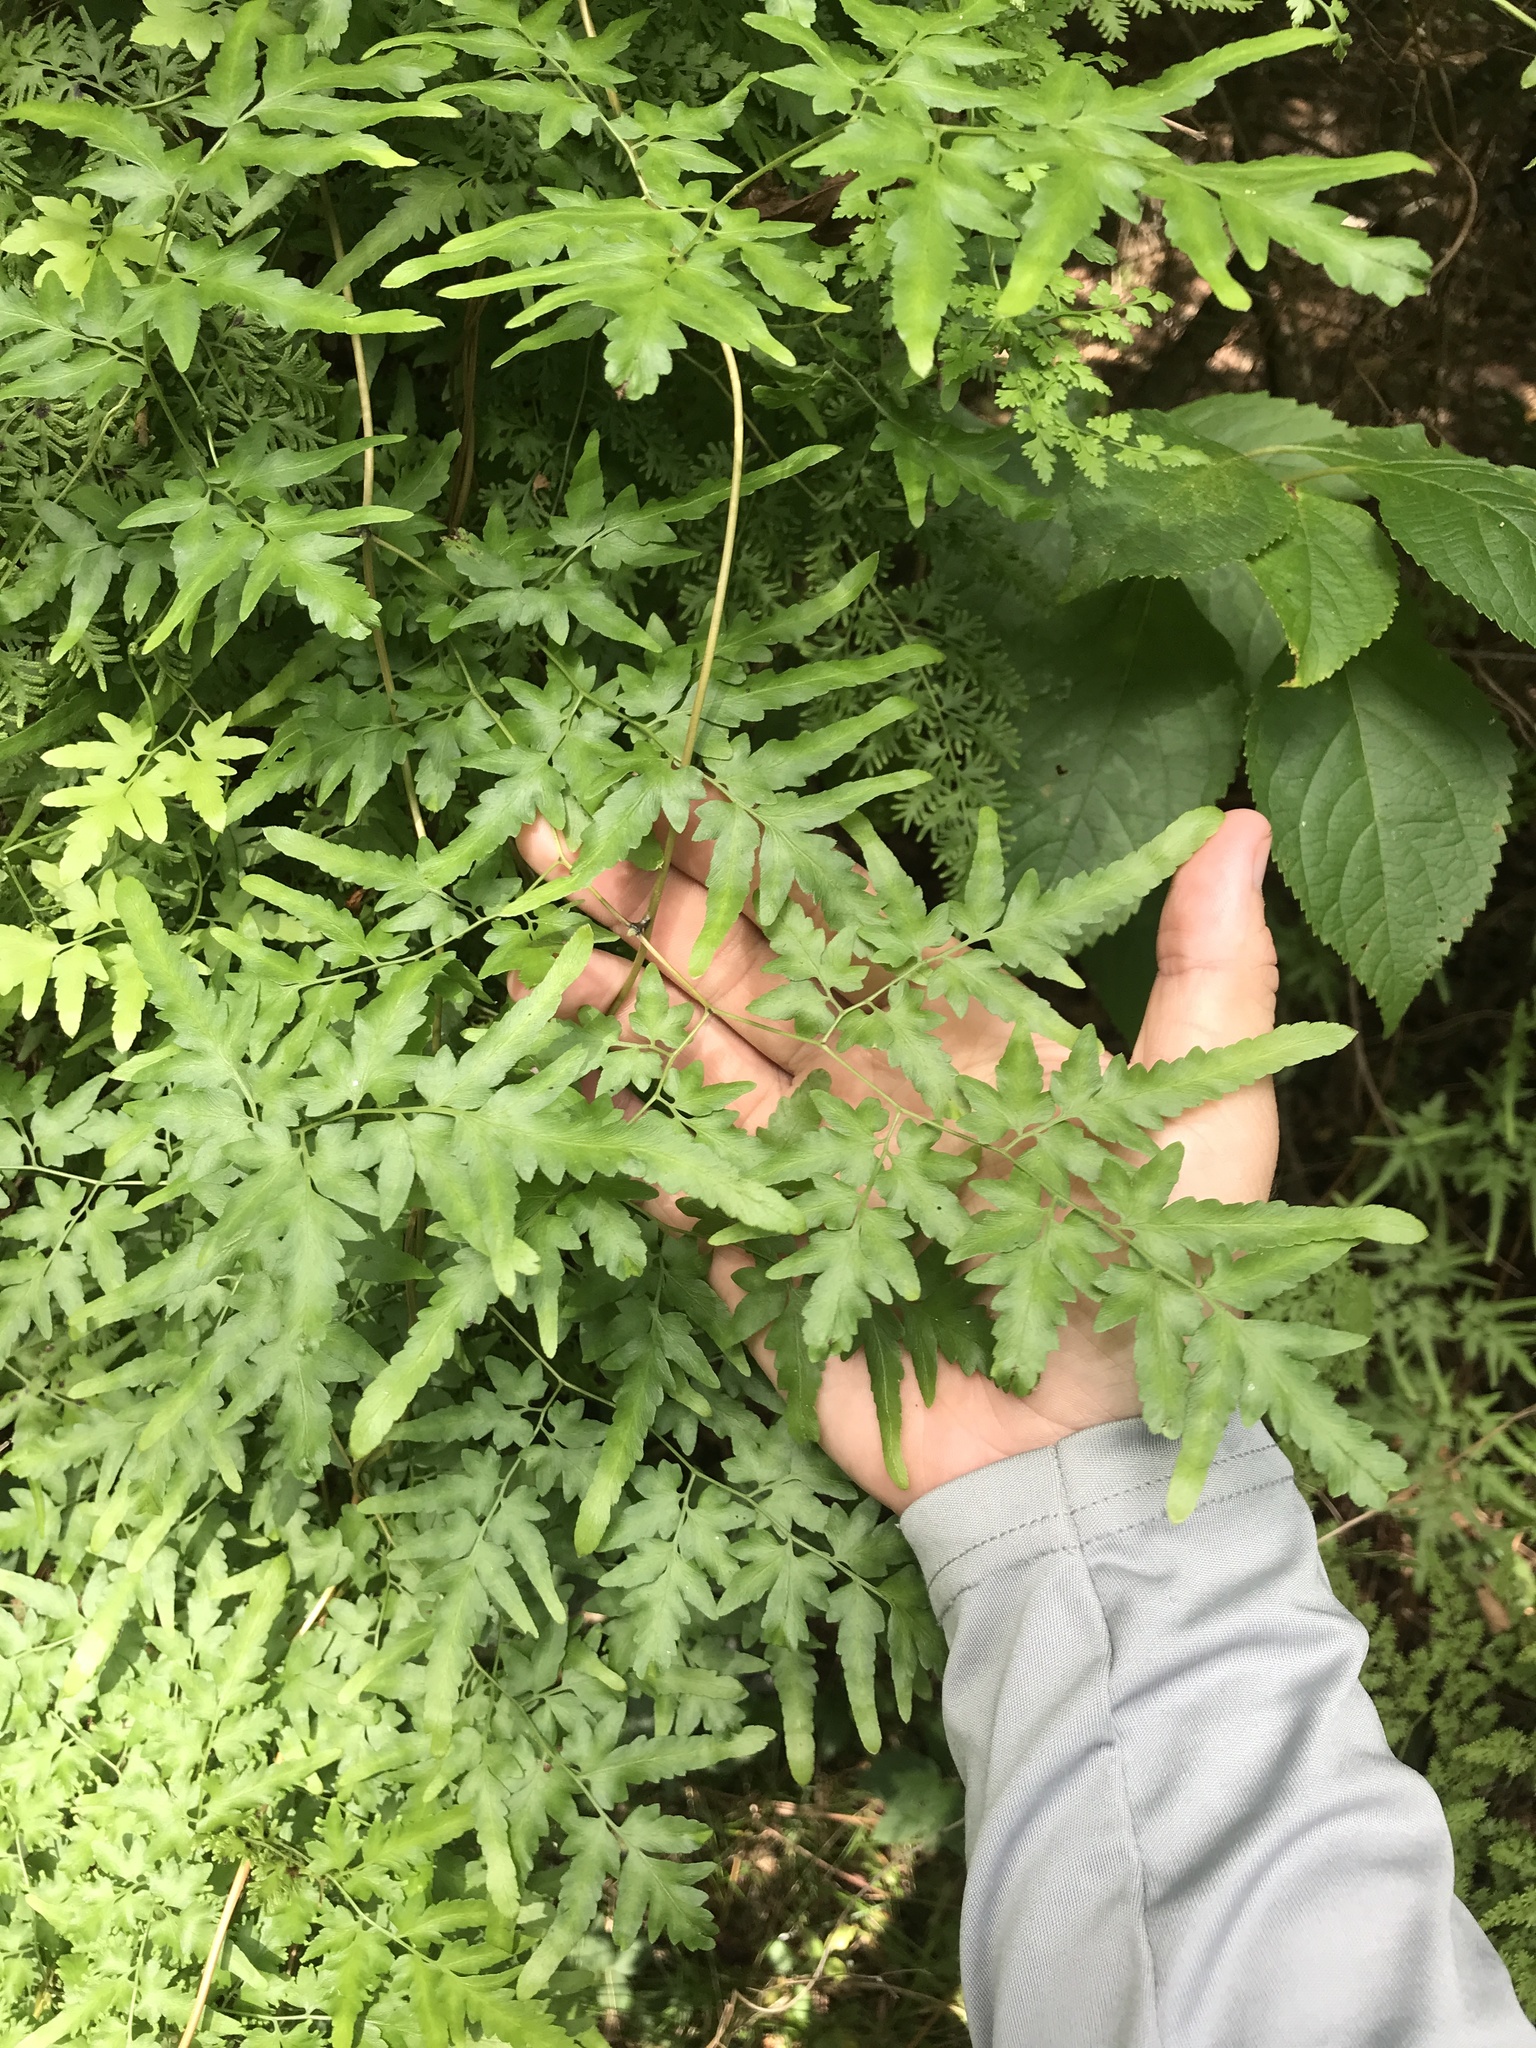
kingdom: Plantae
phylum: Tracheophyta
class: Polypodiopsida
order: Schizaeales
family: Lygodiaceae
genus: Lygodium
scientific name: Lygodium japonicum
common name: Japanese climbing fern
